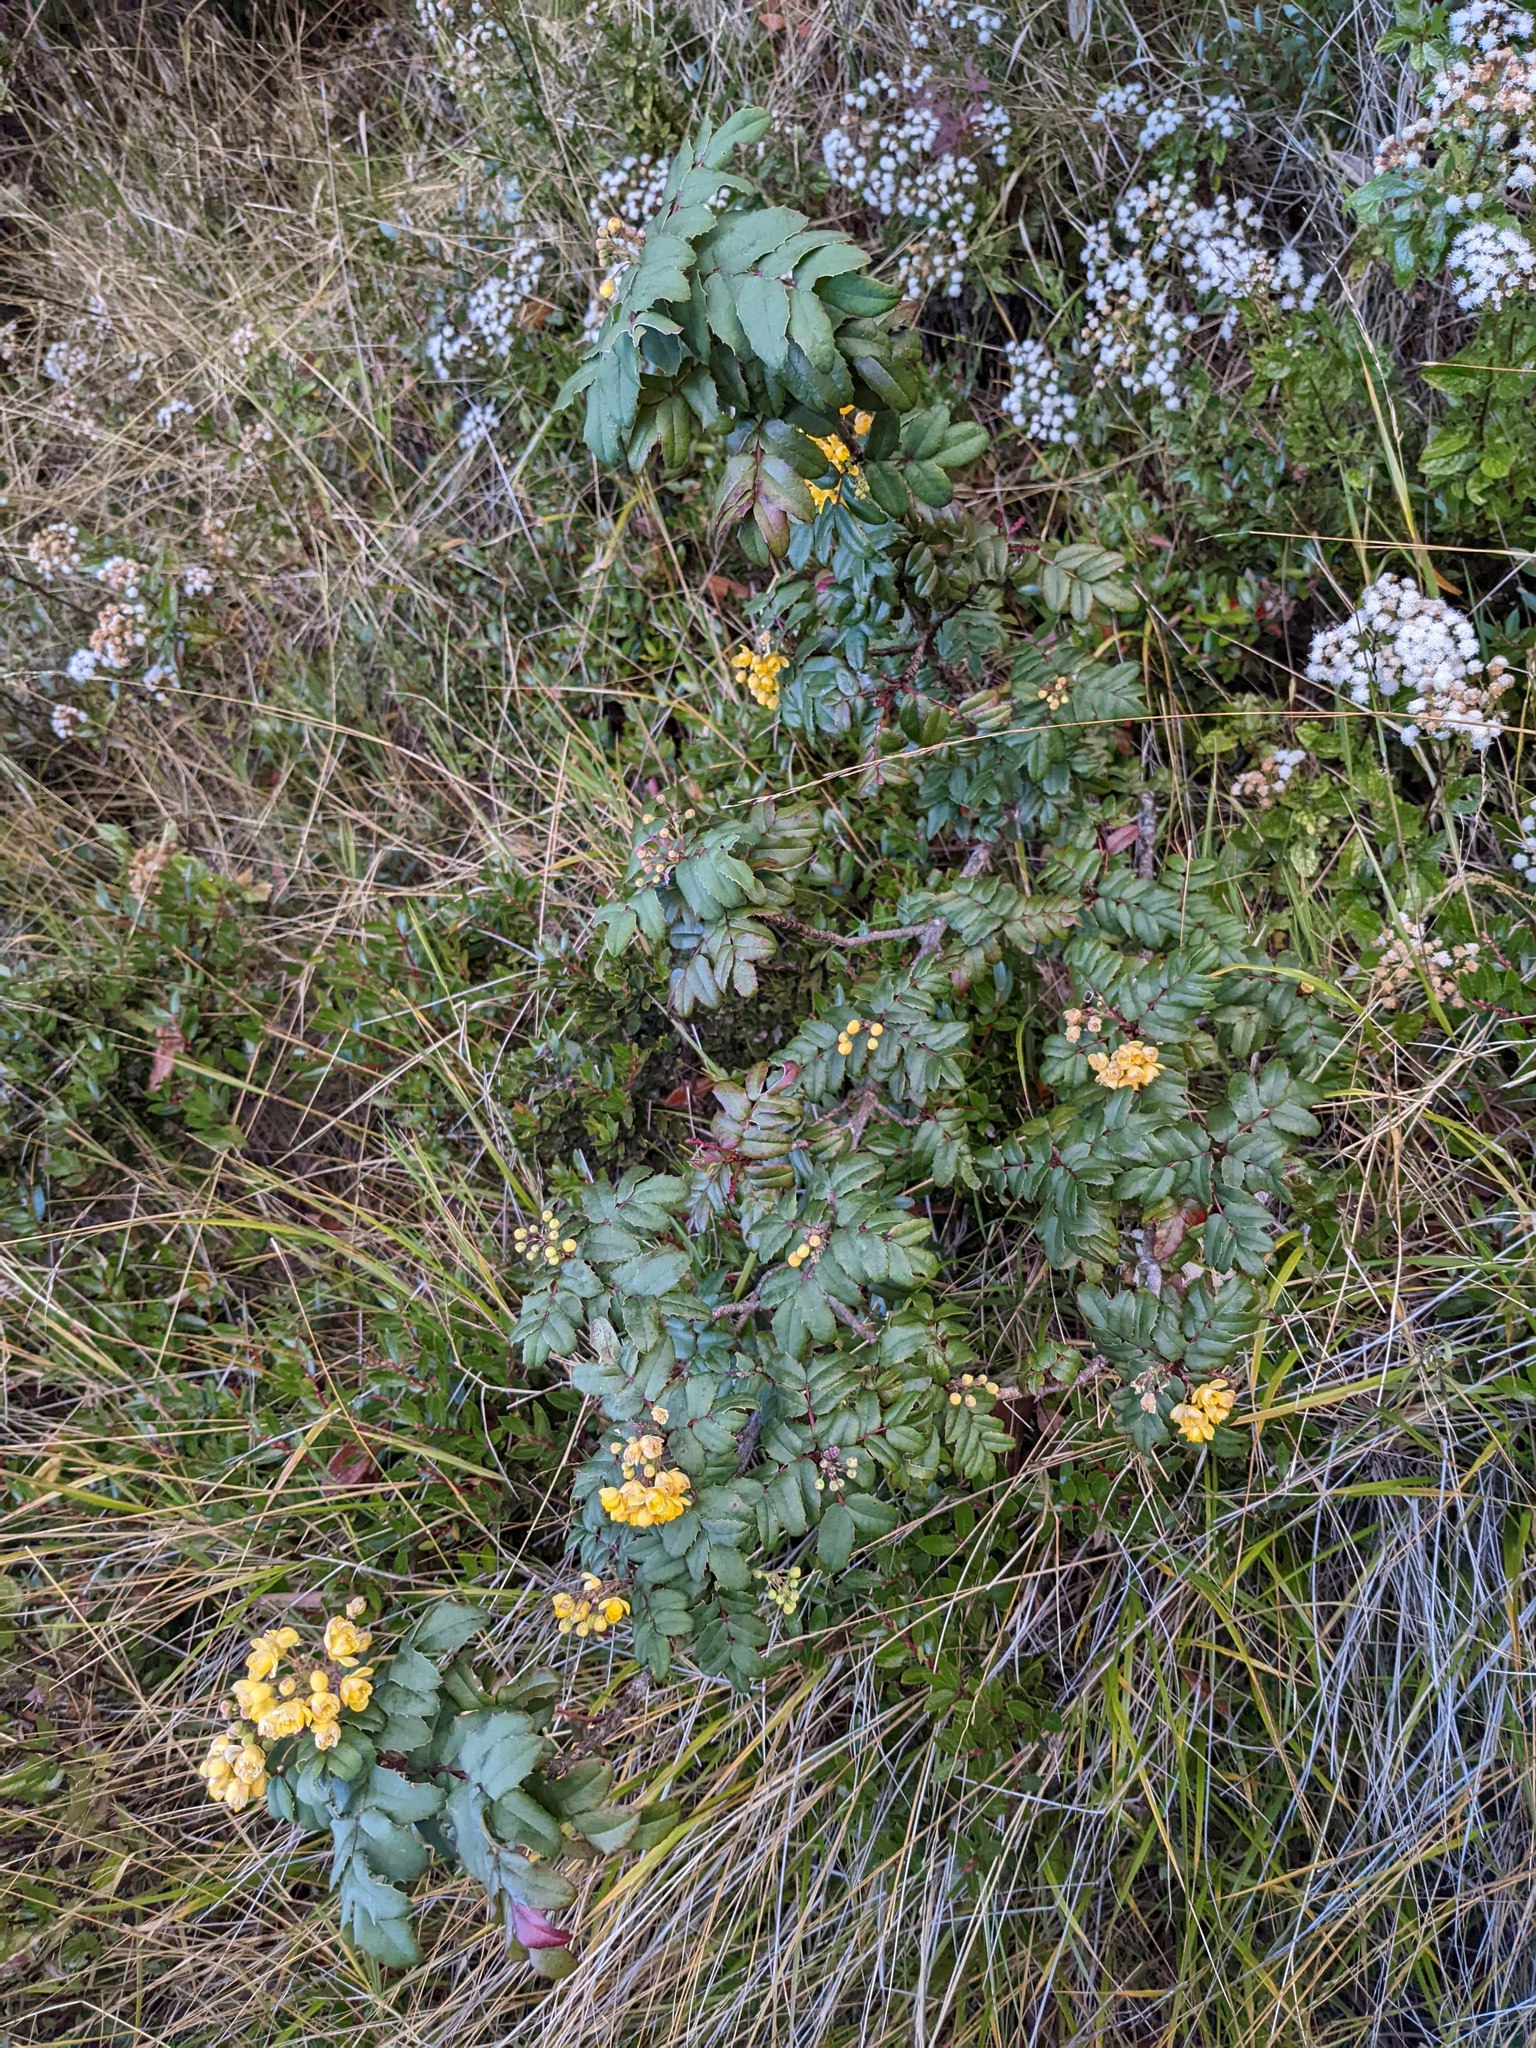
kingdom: Plantae
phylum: Tracheophyta
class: Magnoliopsida
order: Ranunculales
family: Berberidaceae
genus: Mahonia
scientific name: Mahonia volcania
